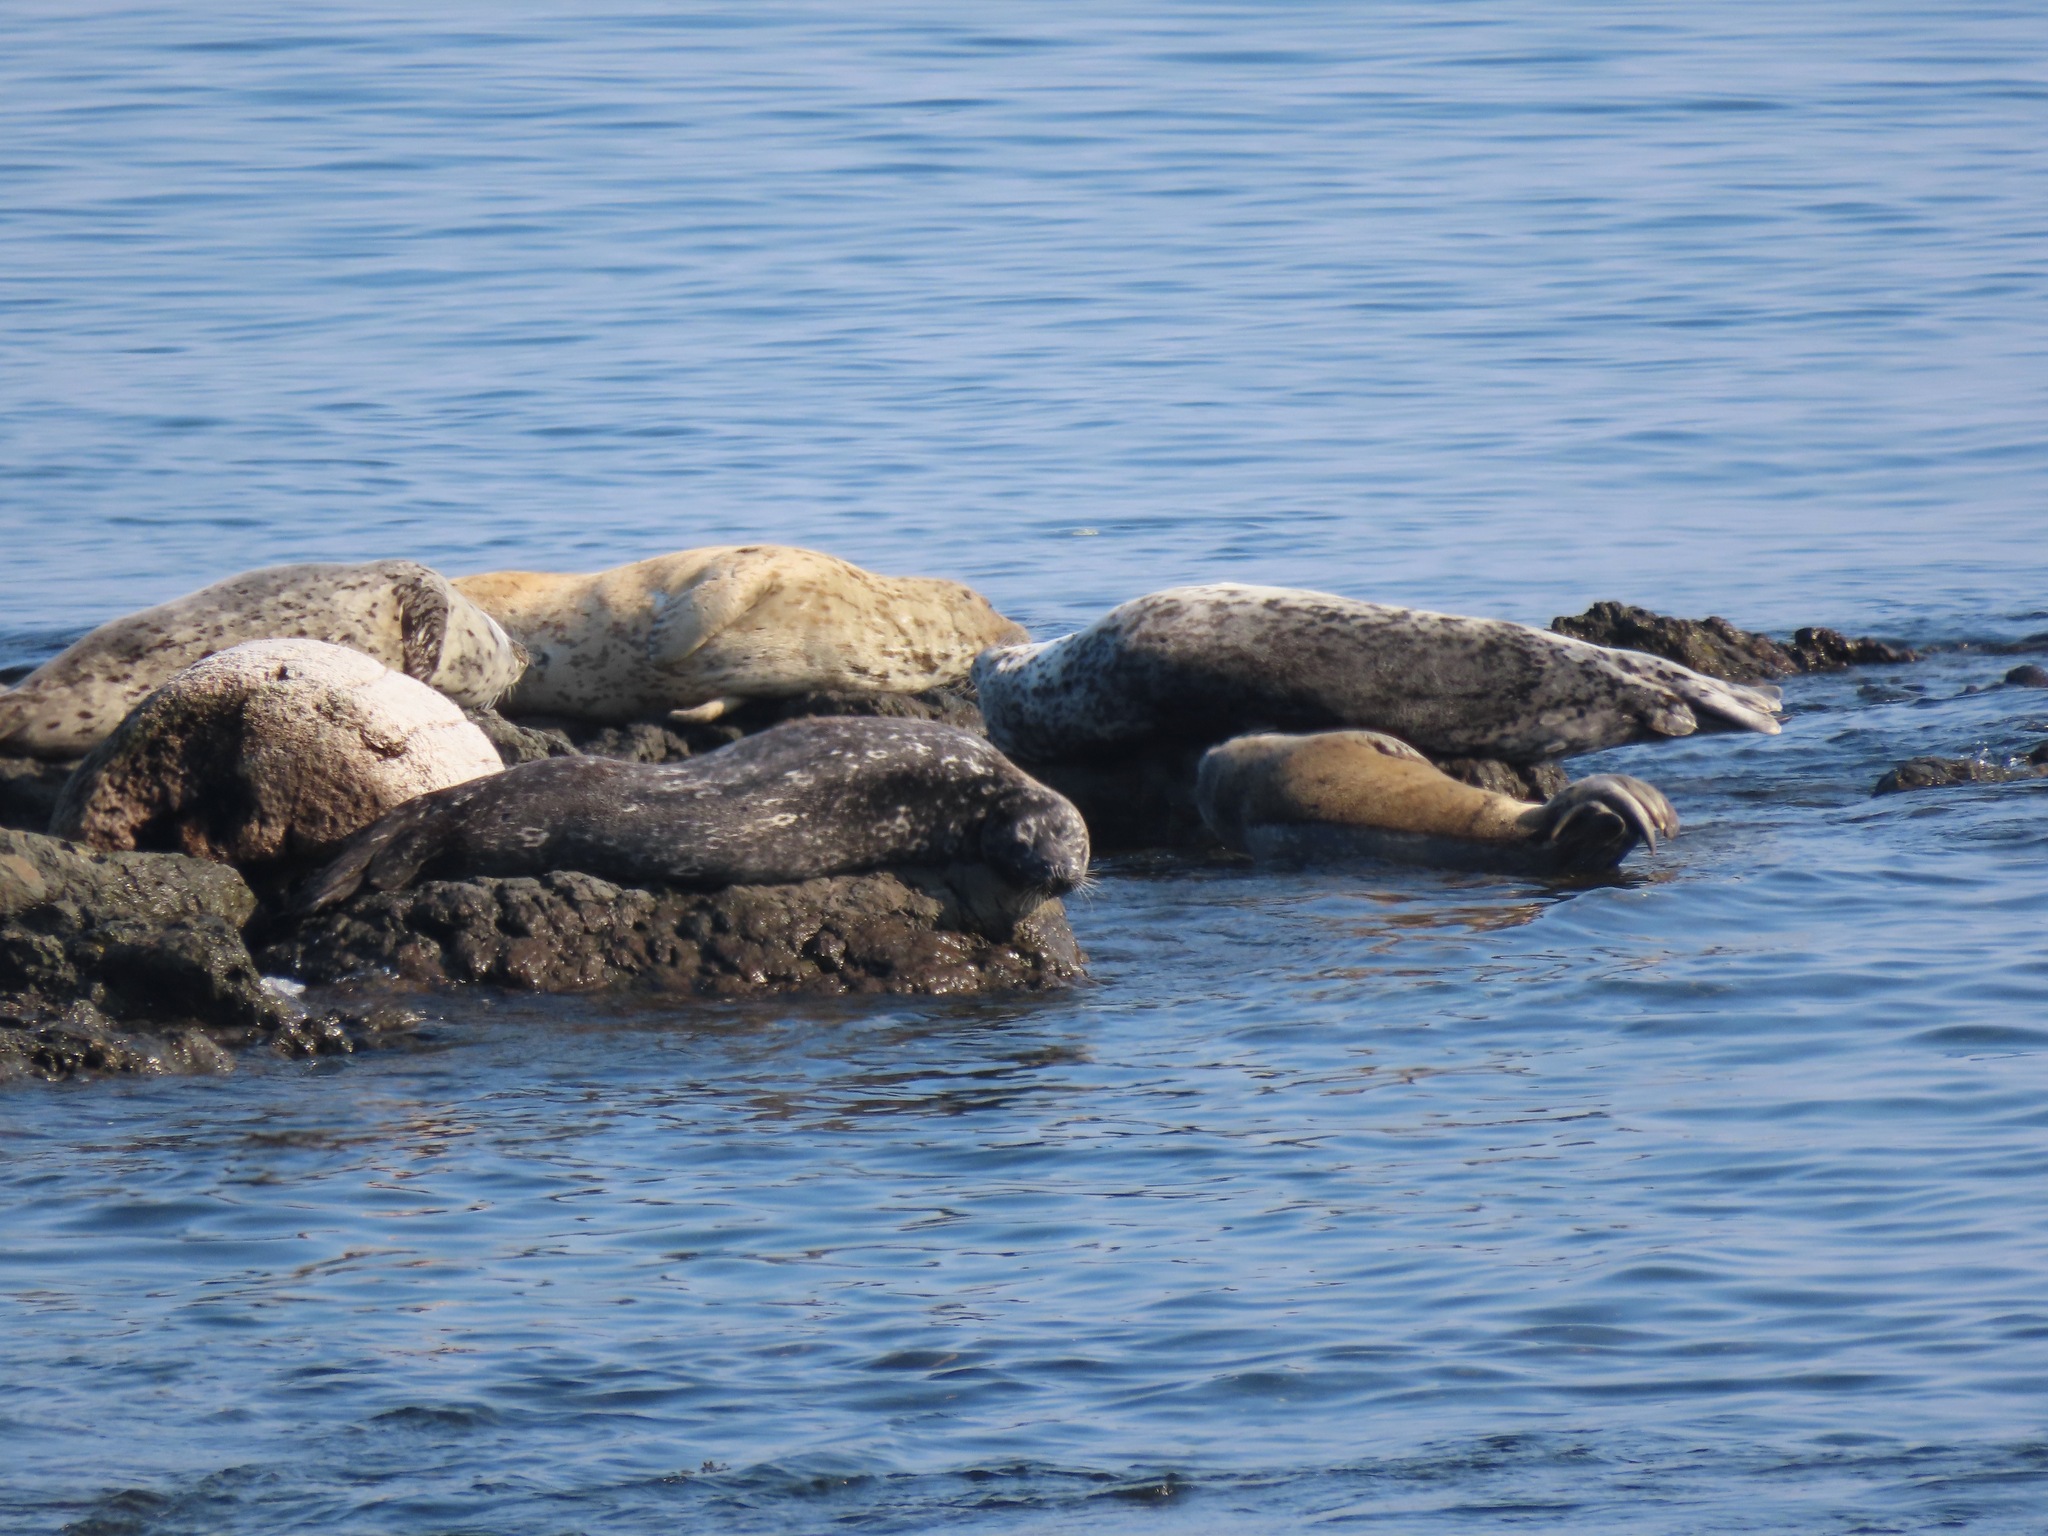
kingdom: Animalia
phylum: Chordata
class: Mammalia
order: Carnivora
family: Phocidae
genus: Phoca
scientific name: Phoca vitulina
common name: Harbor seal
